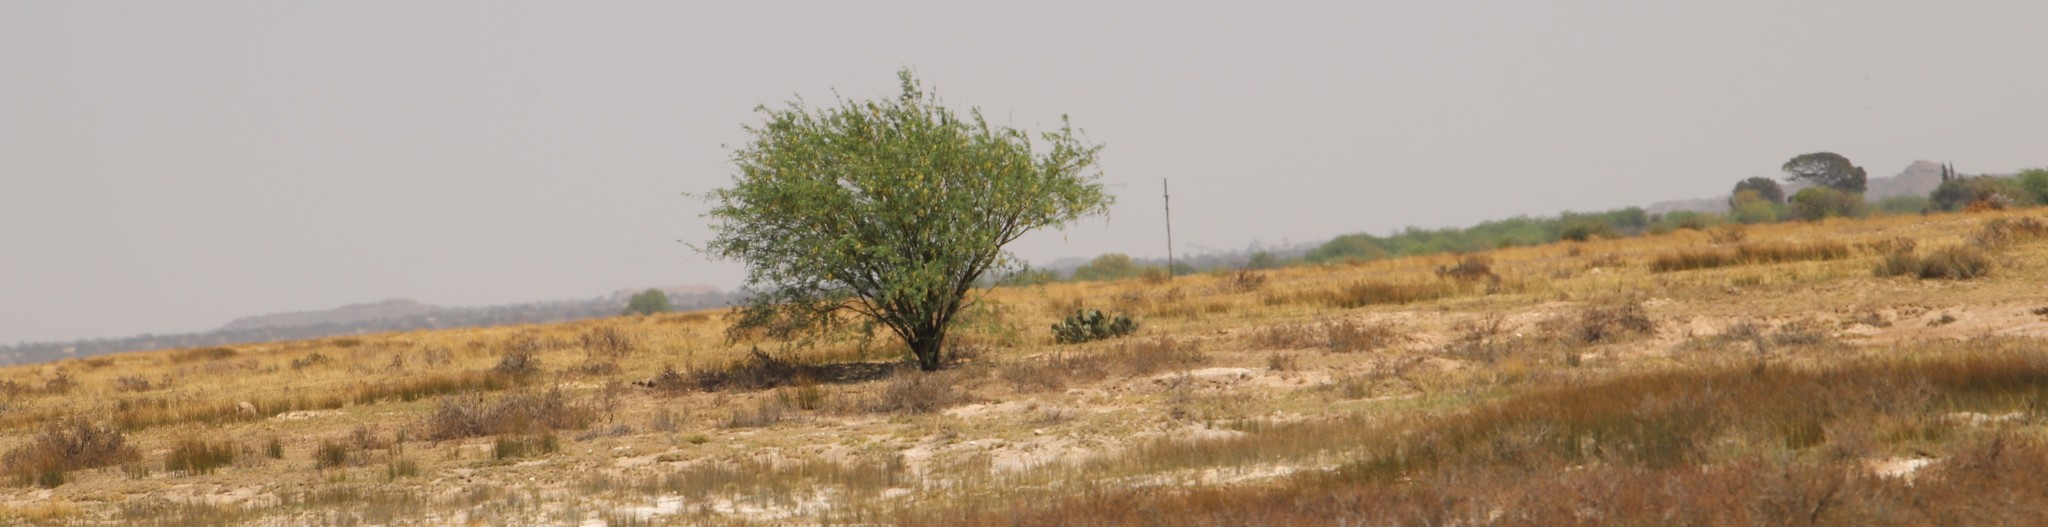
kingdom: Plantae
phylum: Tracheophyta
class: Magnoliopsida
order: Fabales
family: Fabaceae
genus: Prosopis
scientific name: Prosopis pubescens
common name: Screw-bean
